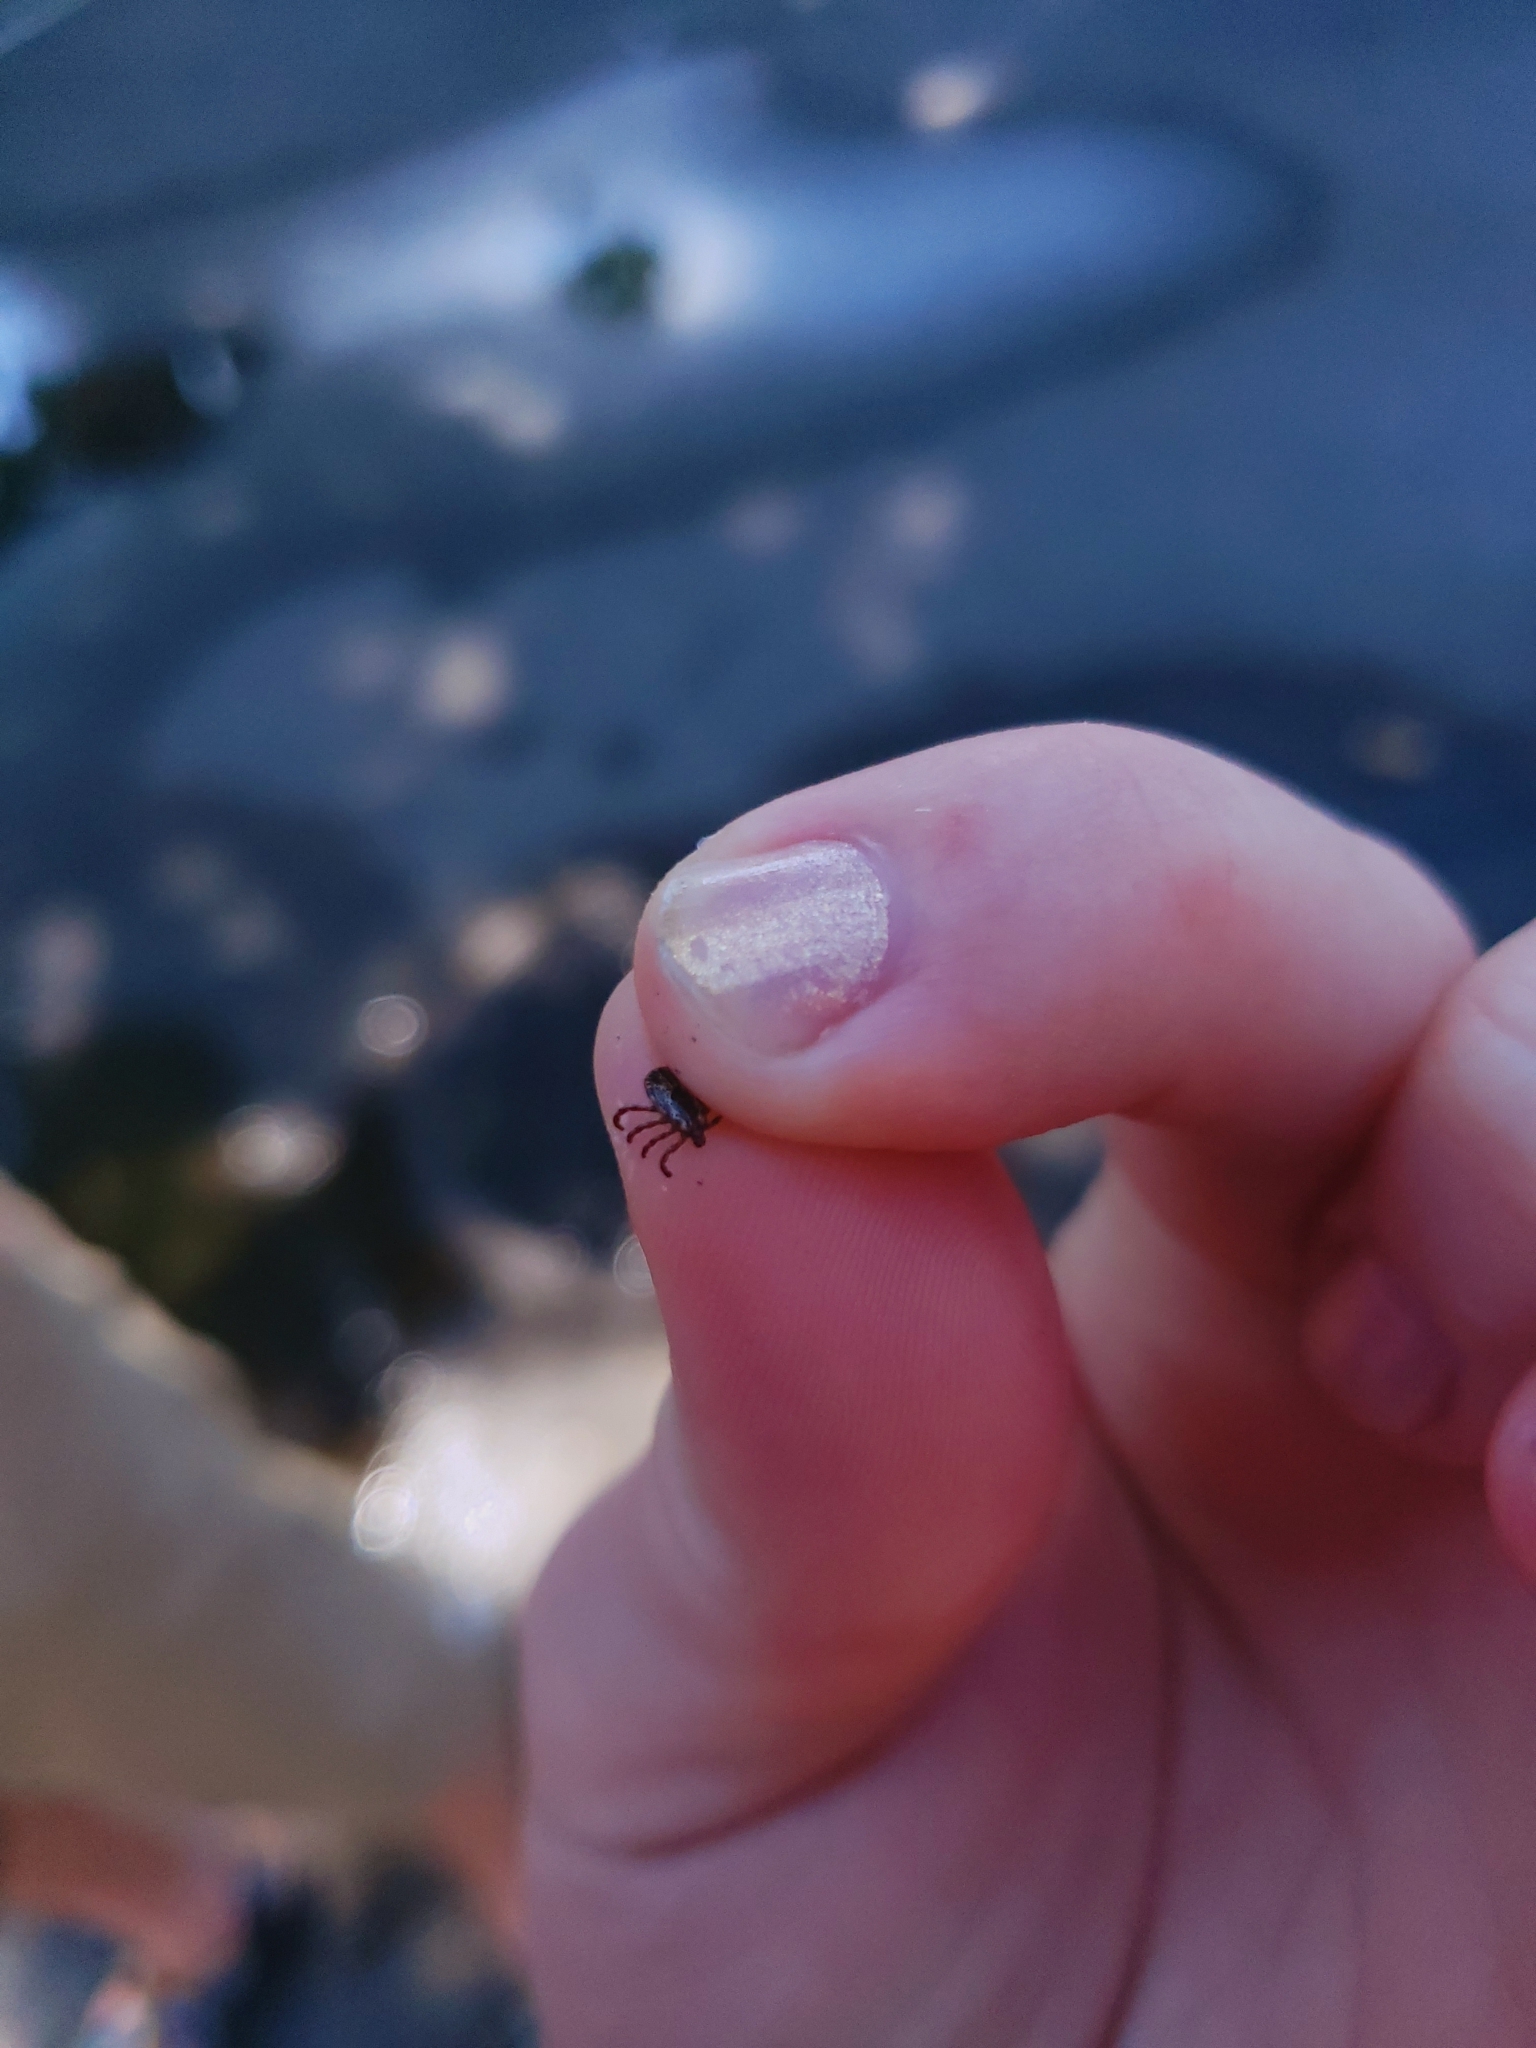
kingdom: Animalia
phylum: Arthropoda
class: Arachnida
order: Ixodida
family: Ixodidae
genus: Dermacentor
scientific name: Dermacentor variabilis
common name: American dog tick
